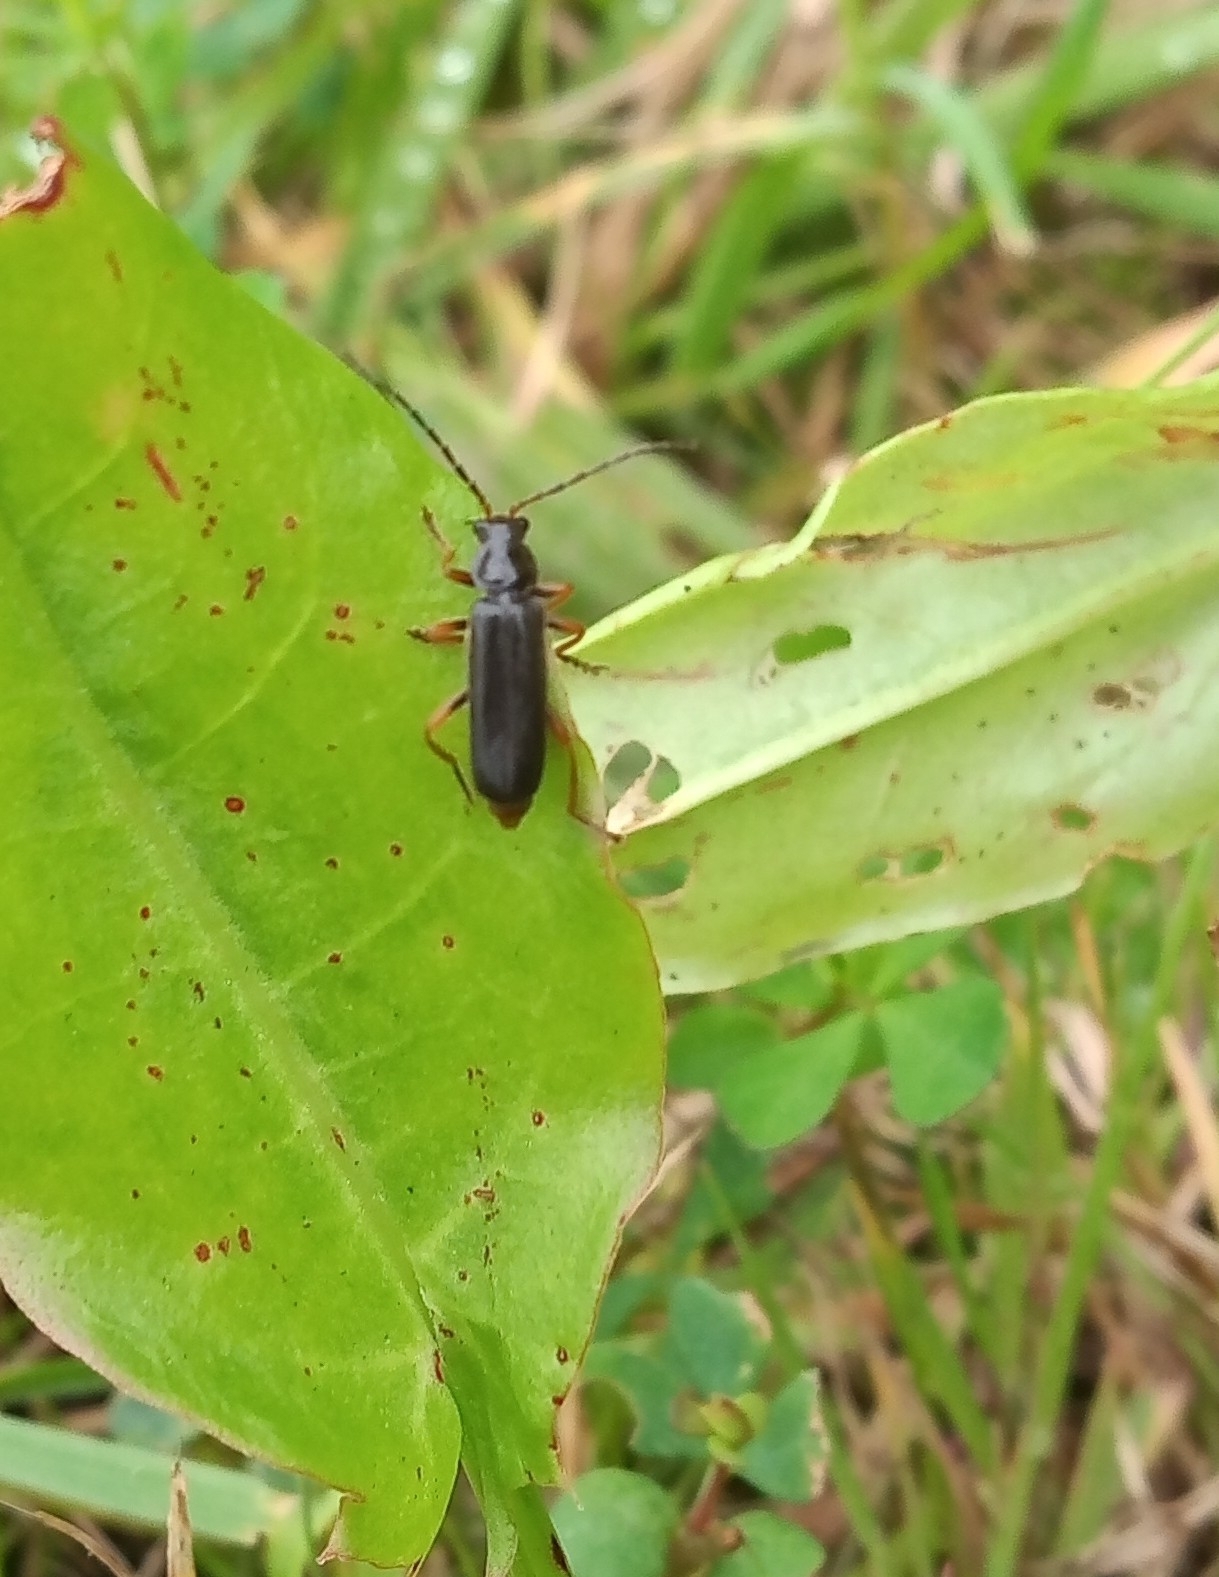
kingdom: Animalia
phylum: Arthropoda
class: Insecta
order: Coleoptera
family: Cantharidae
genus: Cantharis
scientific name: Cantharis flavilabris
